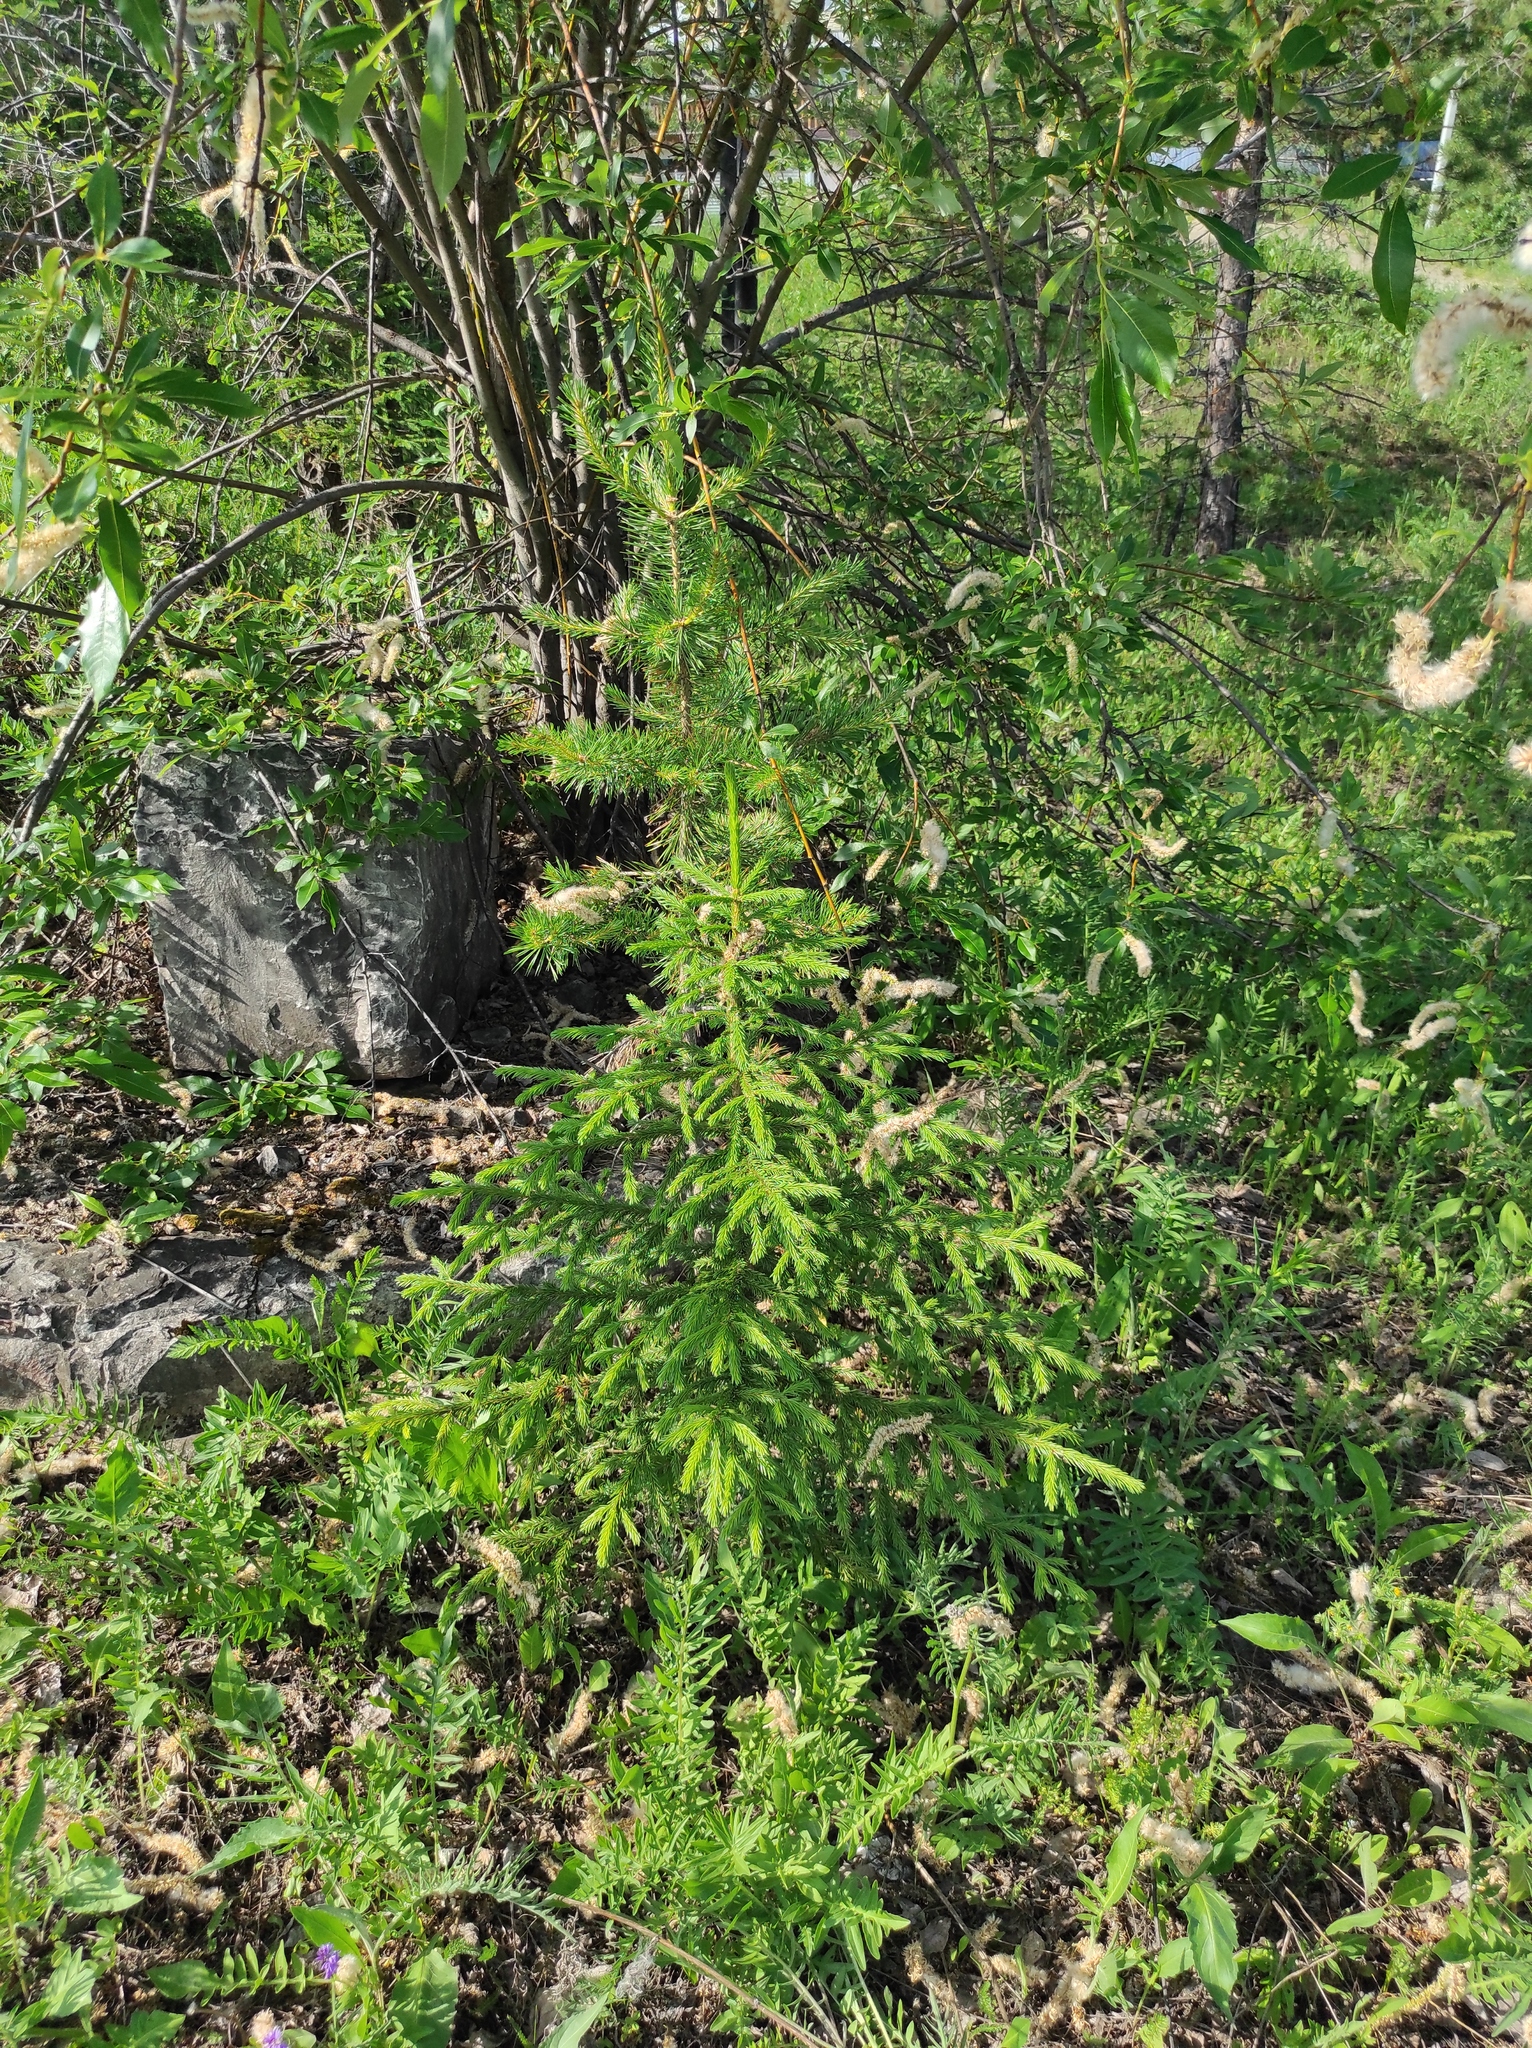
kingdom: Plantae
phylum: Tracheophyta
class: Pinopsida
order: Pinales
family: Pinaceae
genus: Picea
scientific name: Picea obovata
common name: Siberian spruce
